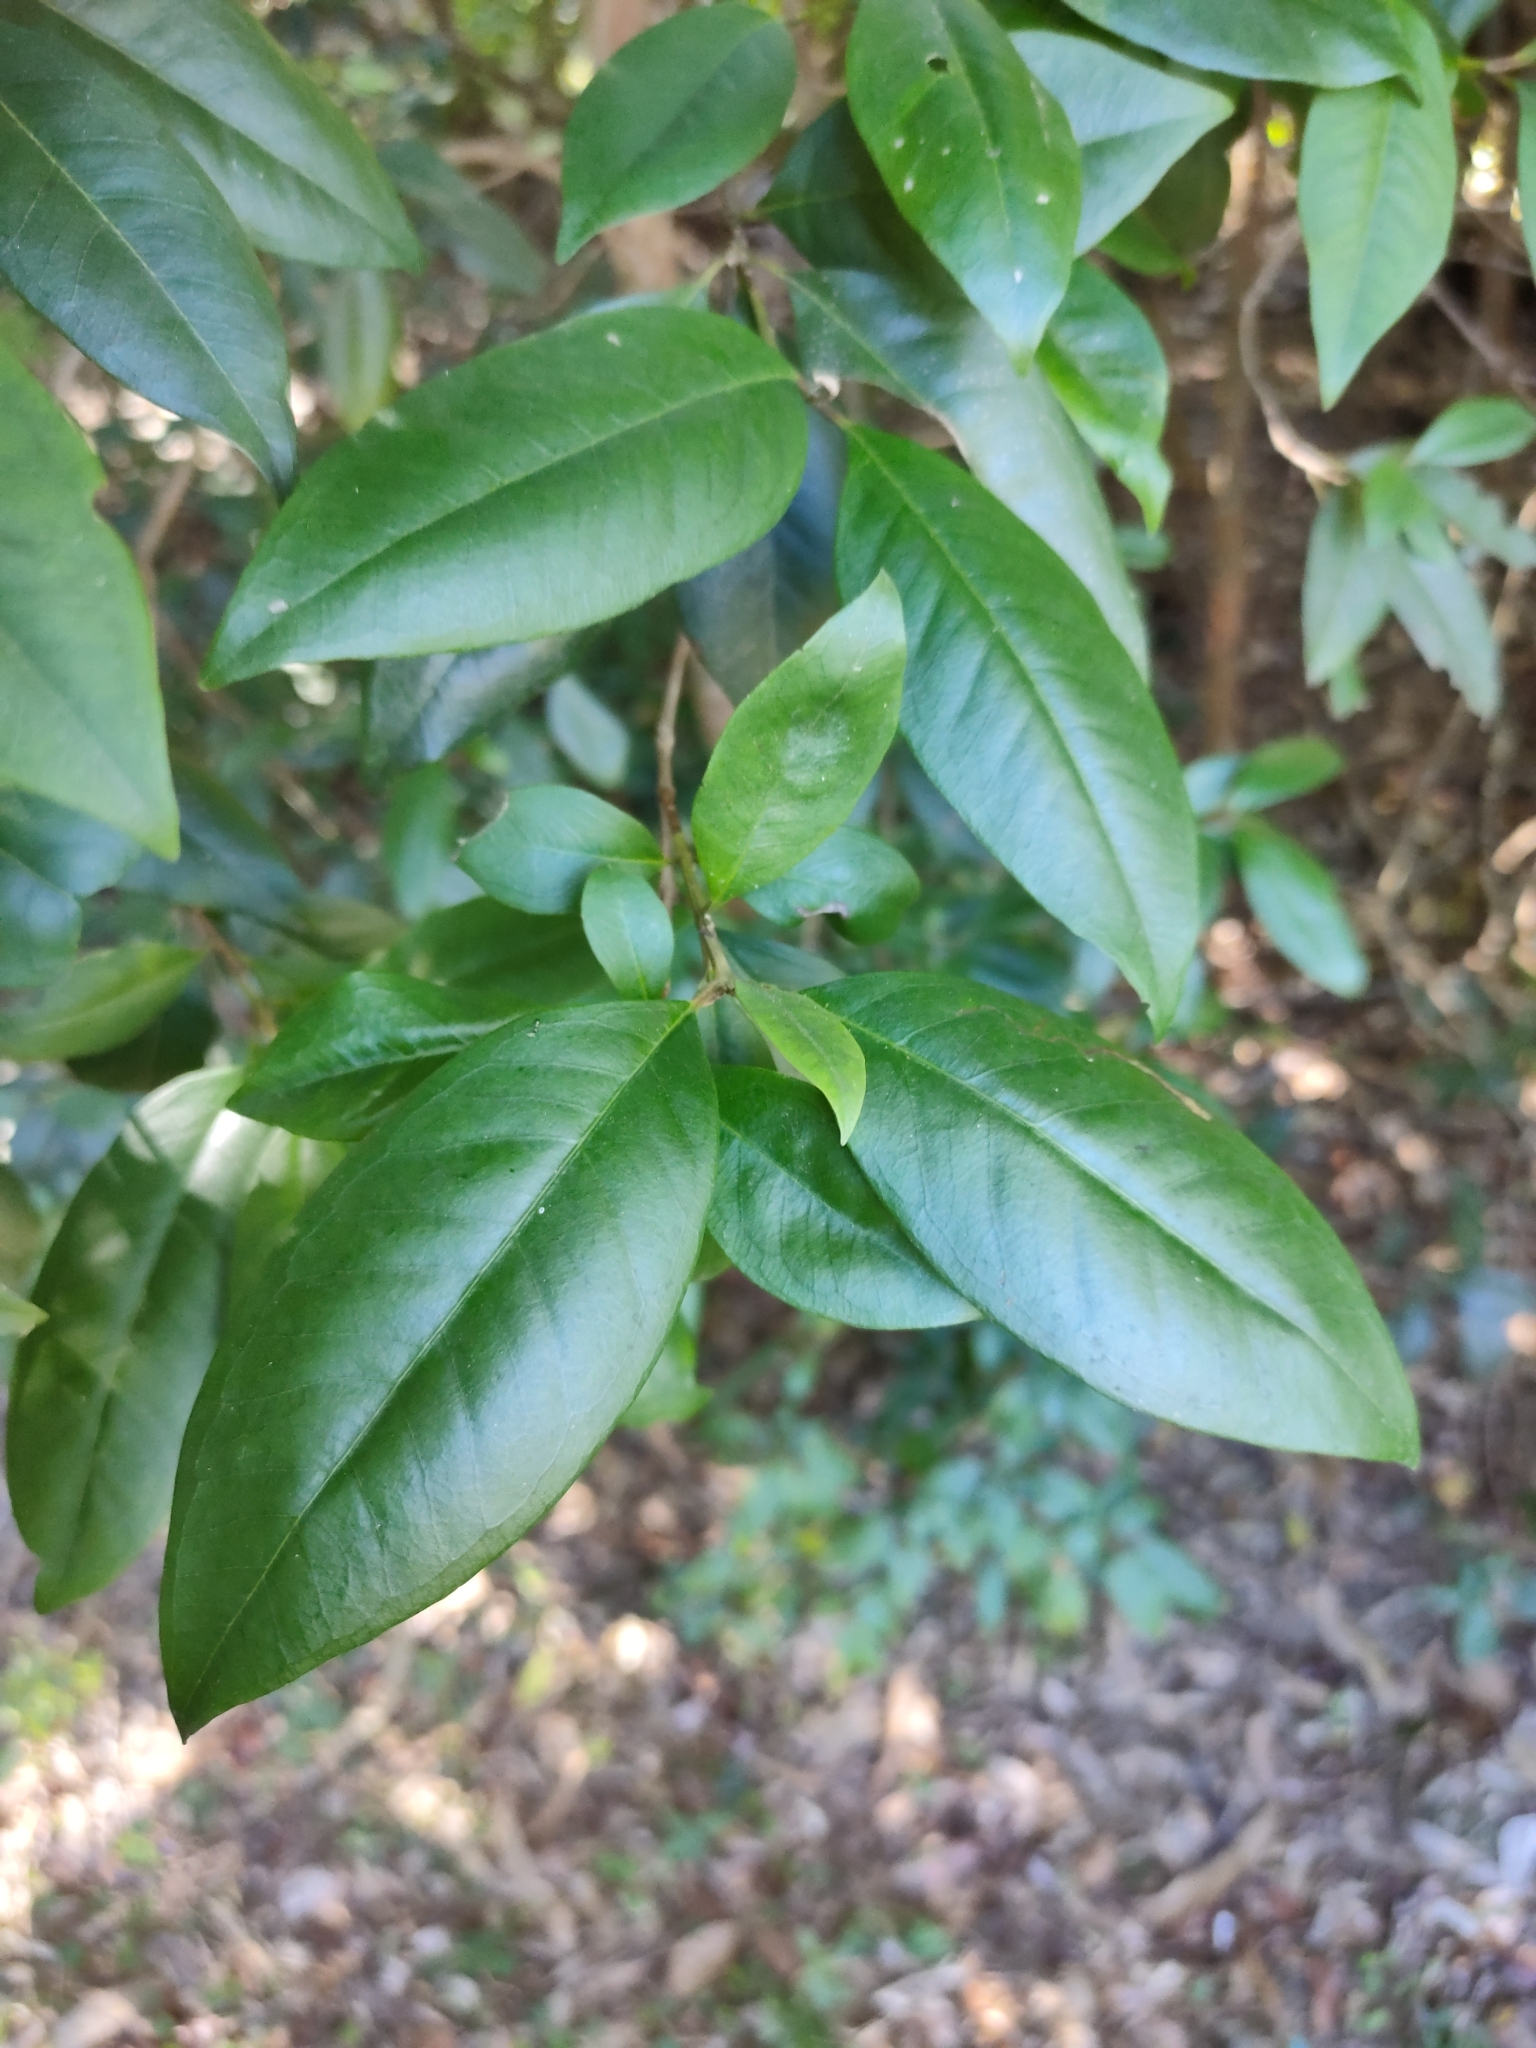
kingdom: Plantae
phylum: Tracheophyta
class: Magnoliopsida
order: Myrtales
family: Myrtaceae
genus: Backhousia
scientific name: Backhousia subargentea
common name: Giant ironwood
